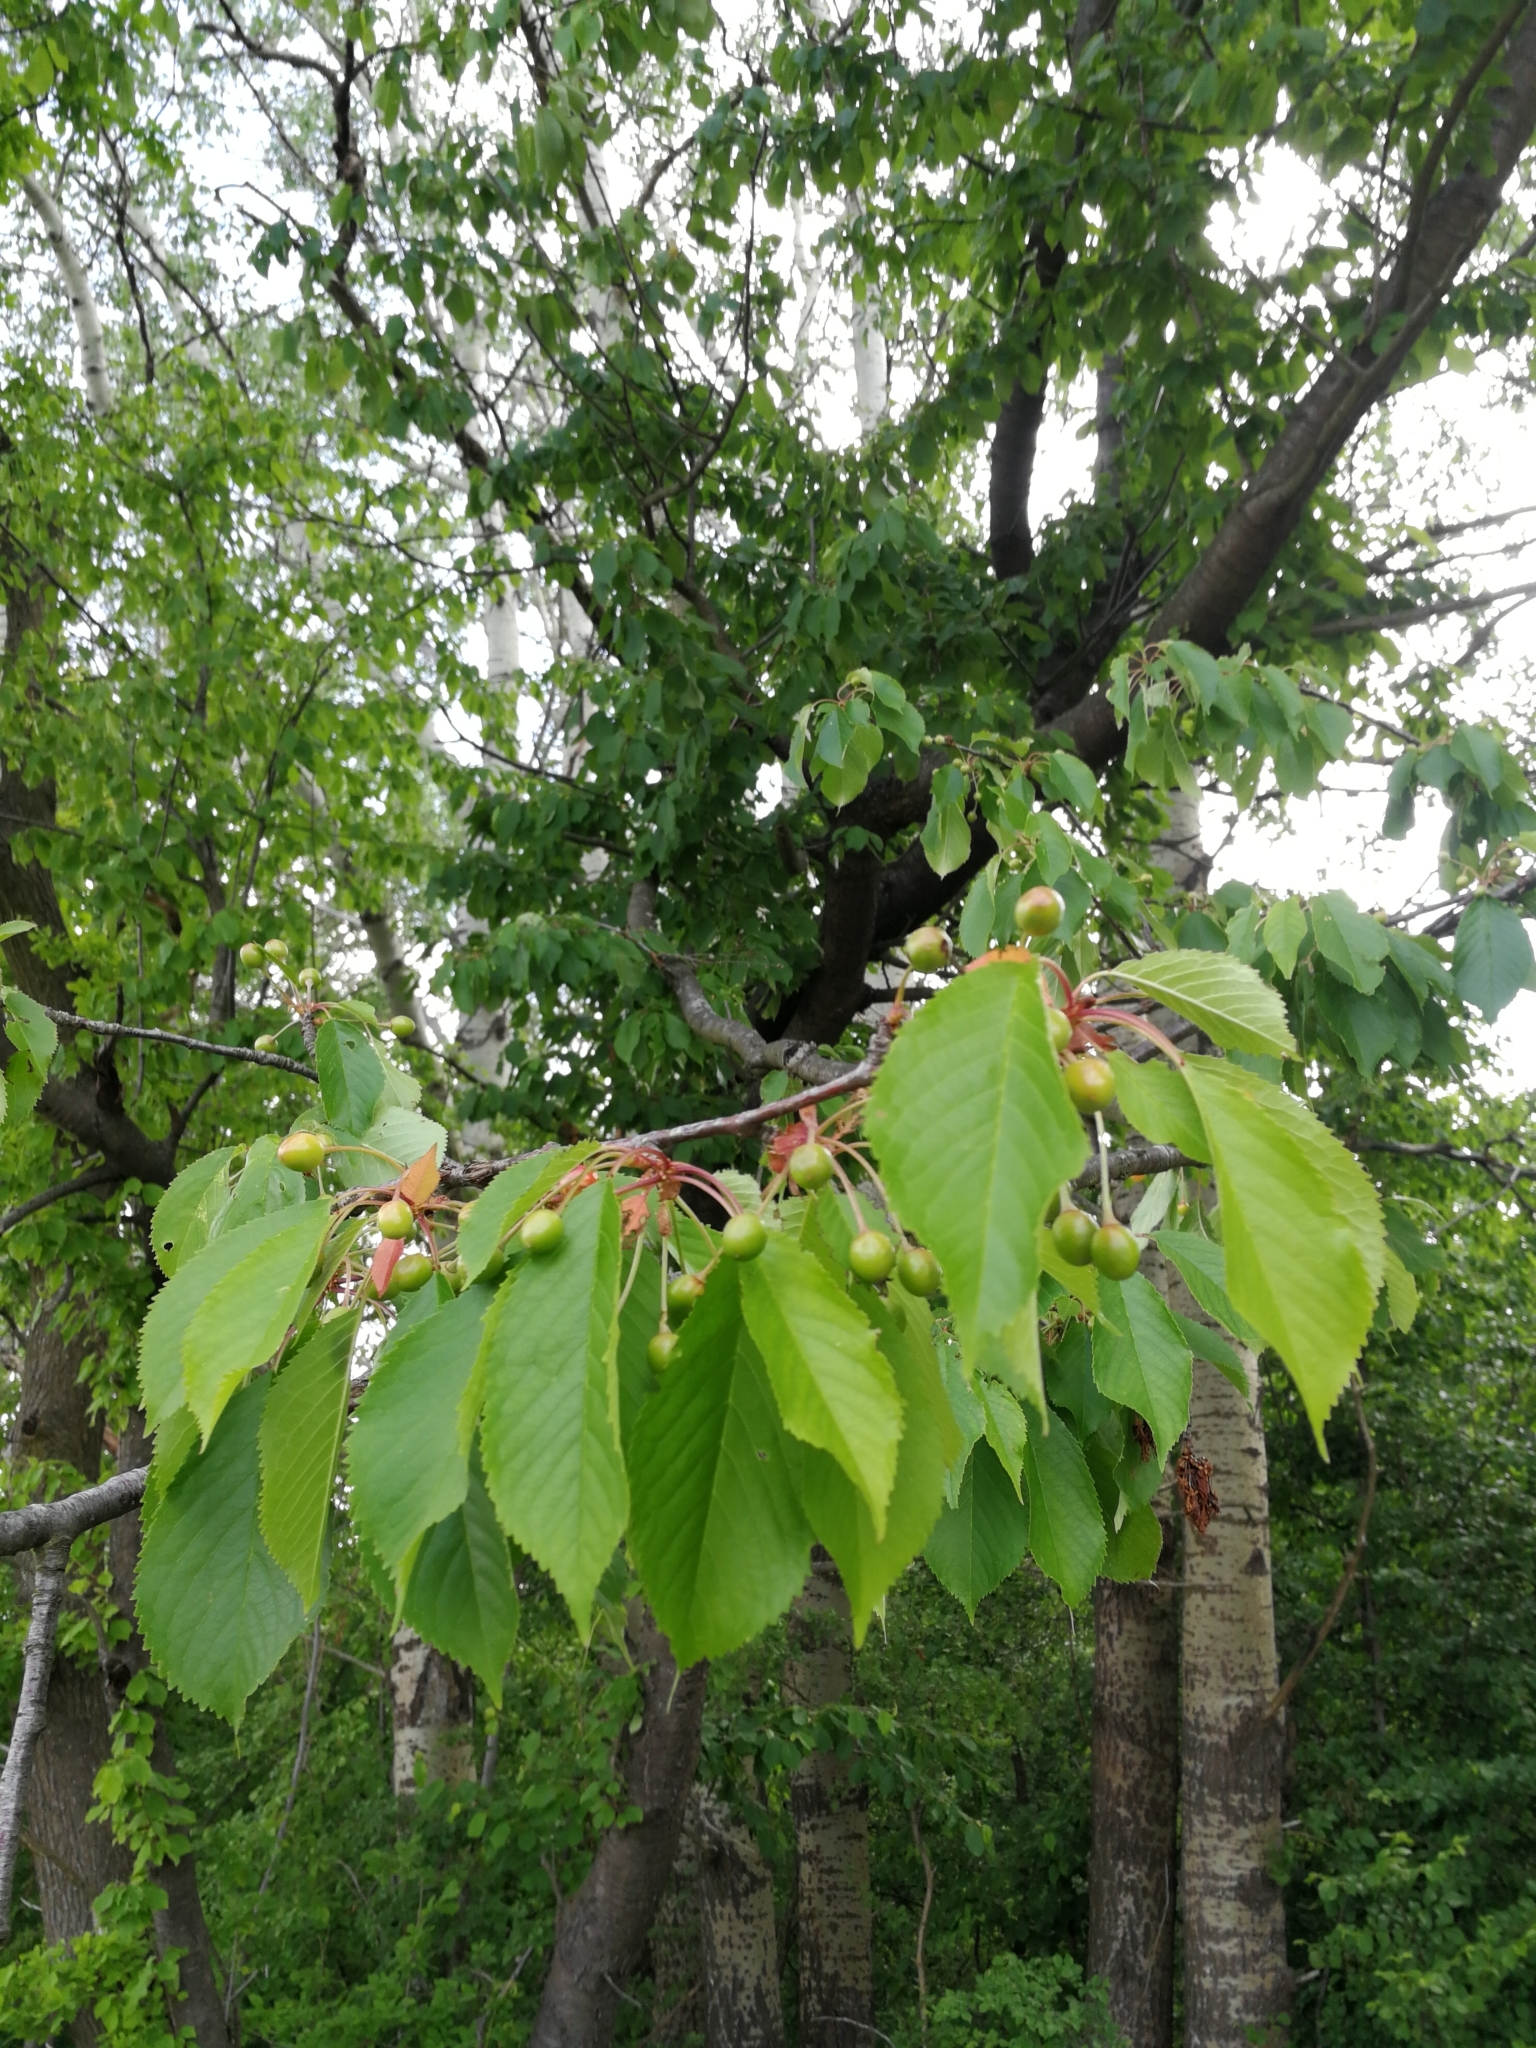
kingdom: Plantae
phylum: Tracheophyta
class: Magnoliopsida
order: Rosales
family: Rosaceae
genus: Prunus
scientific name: Prunus avium
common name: Sweet cherry
